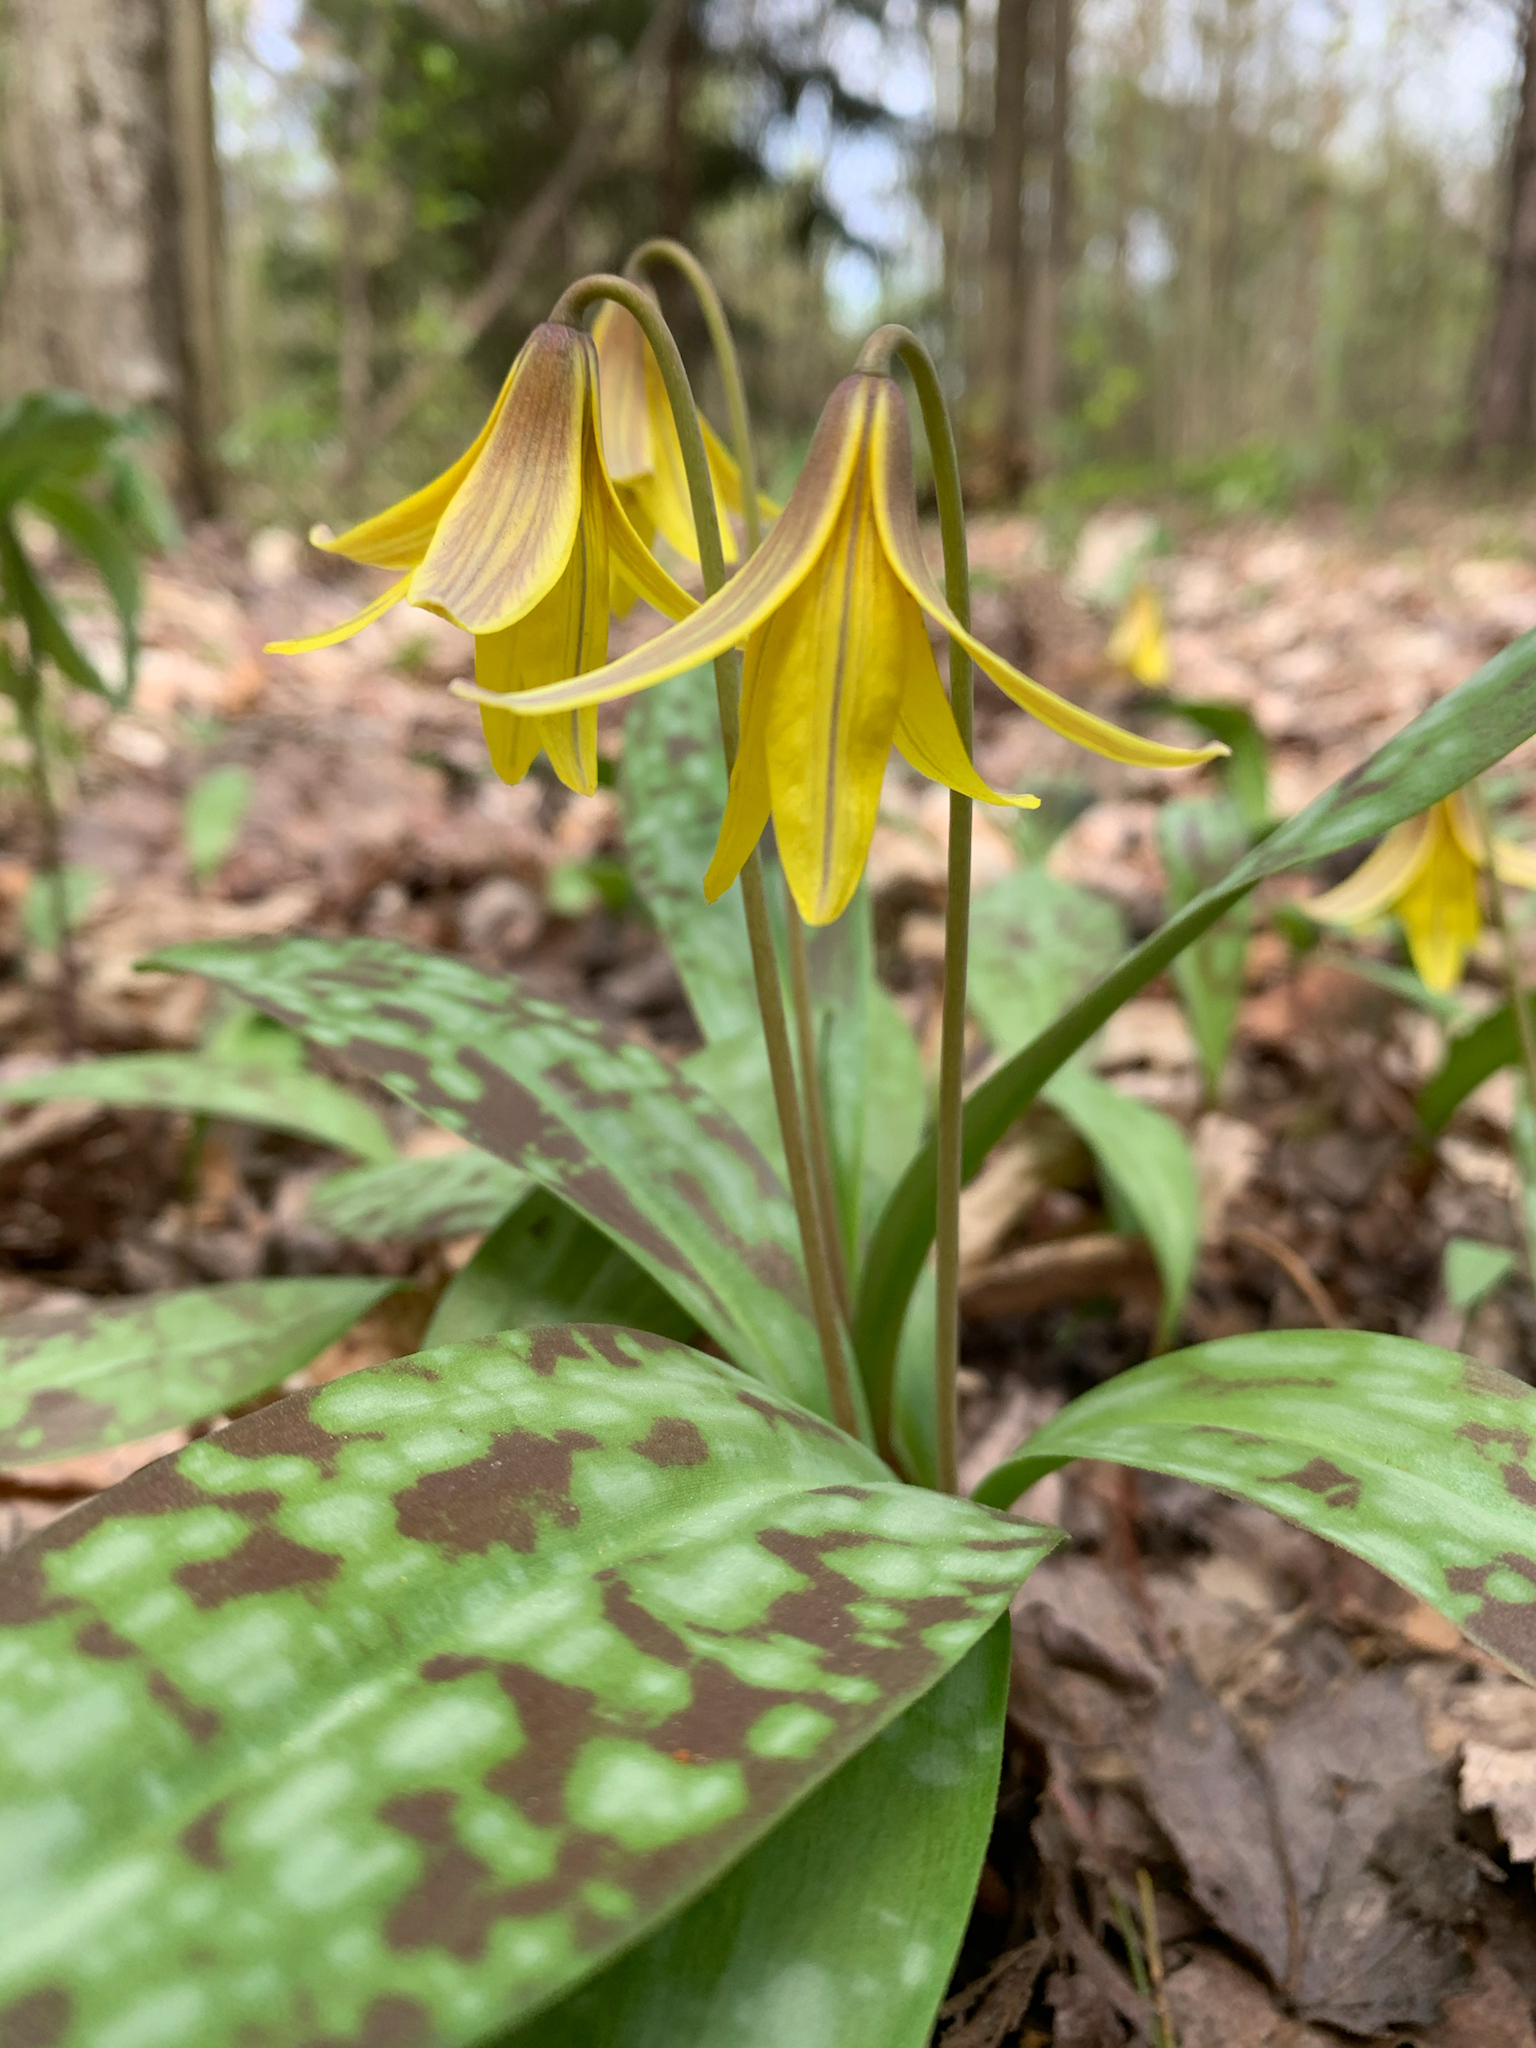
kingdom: Plantae
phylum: Tracheophyta
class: Liliopsida
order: Liliales
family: Liliaceae
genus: Erythronium
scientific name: Erythronium americanum
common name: Yellow adder's-tongue
